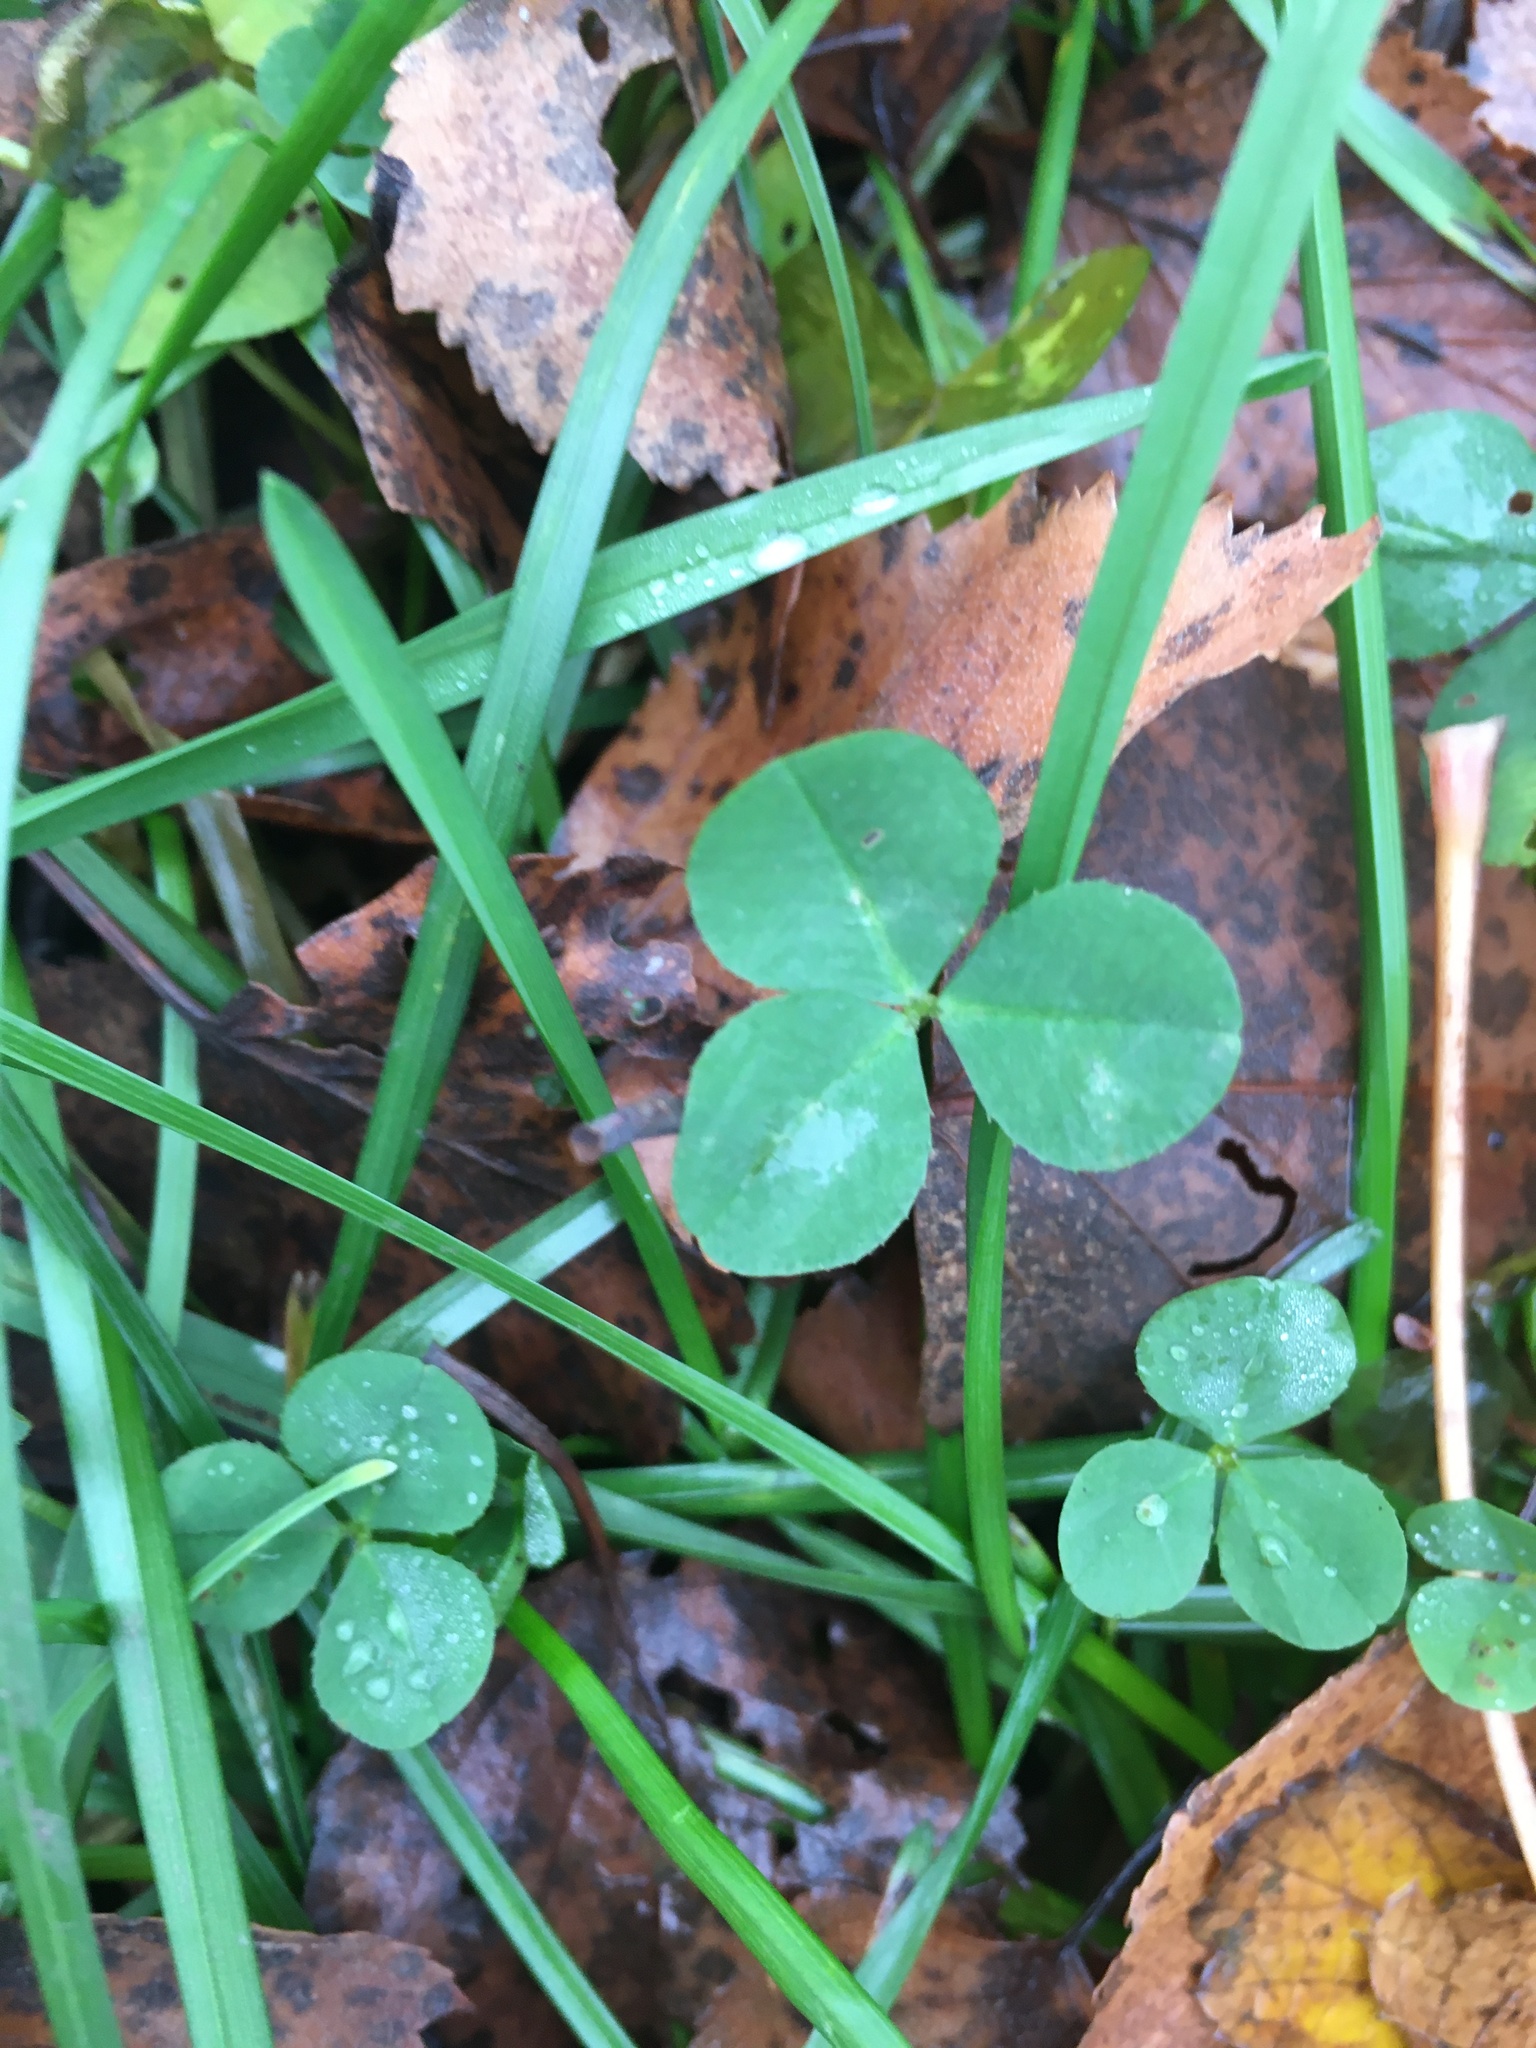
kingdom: Plantae
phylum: Tracheophyta
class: Magnoliopsida
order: Fabales
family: Fabaceae
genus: Trifolium
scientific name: Trifolium repens
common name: White clover
